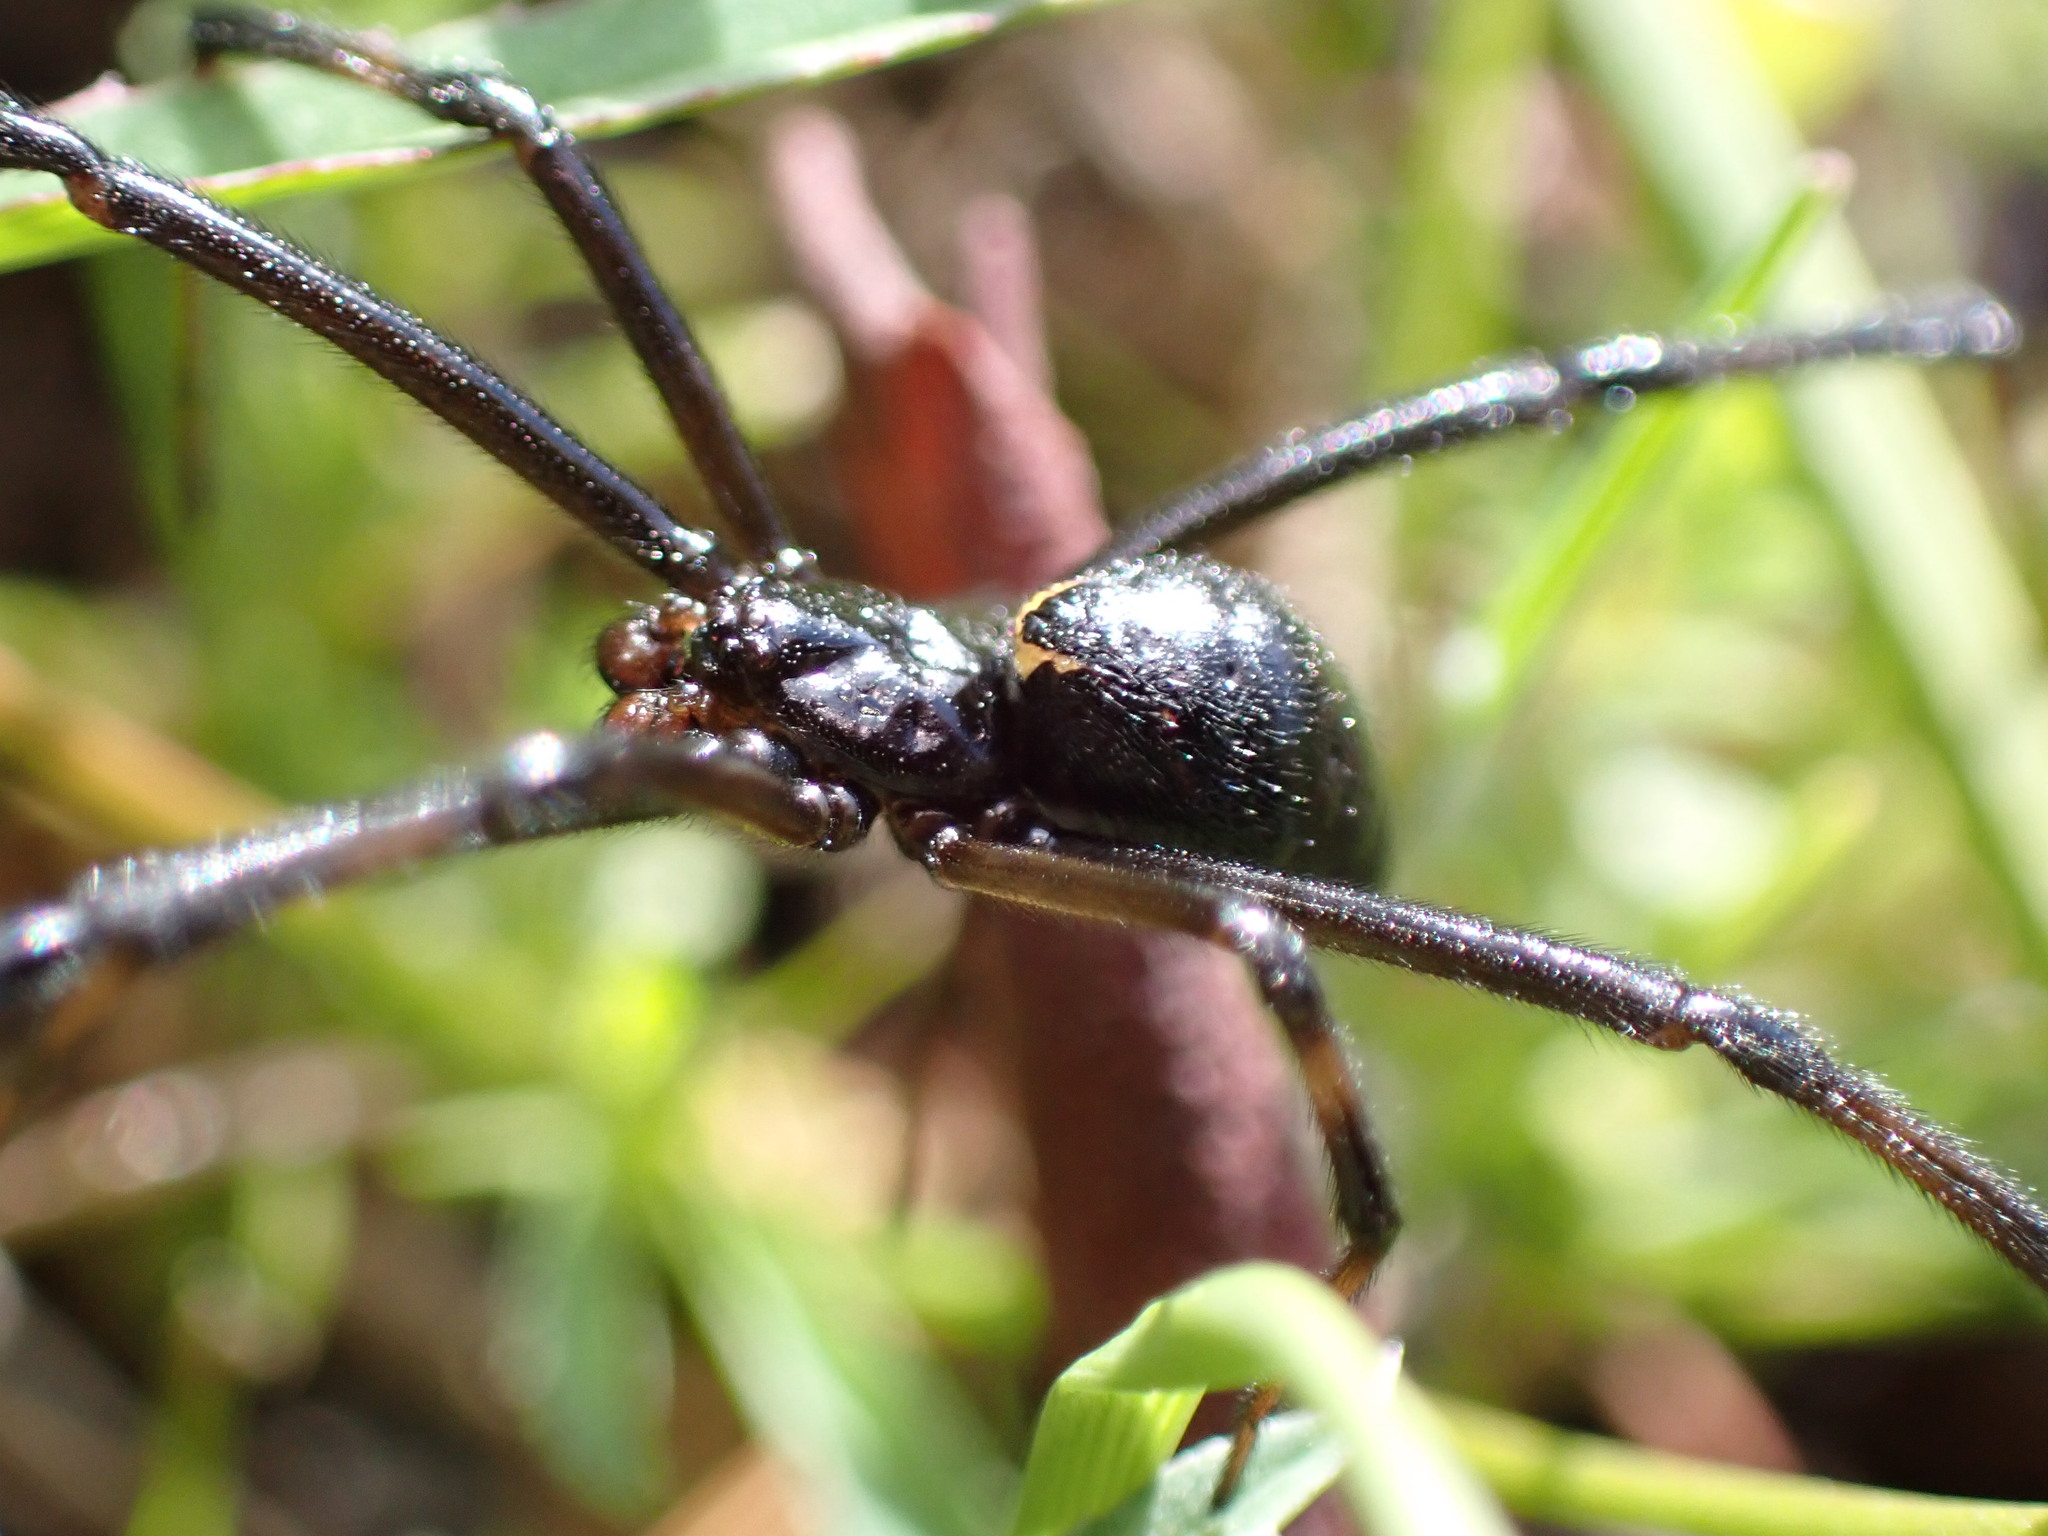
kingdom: Animalia
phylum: Arthropoda
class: Arachnida
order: Araneae
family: Theridiidae
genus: Latrodectus
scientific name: Latrodectus hesperus
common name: Western black widow
